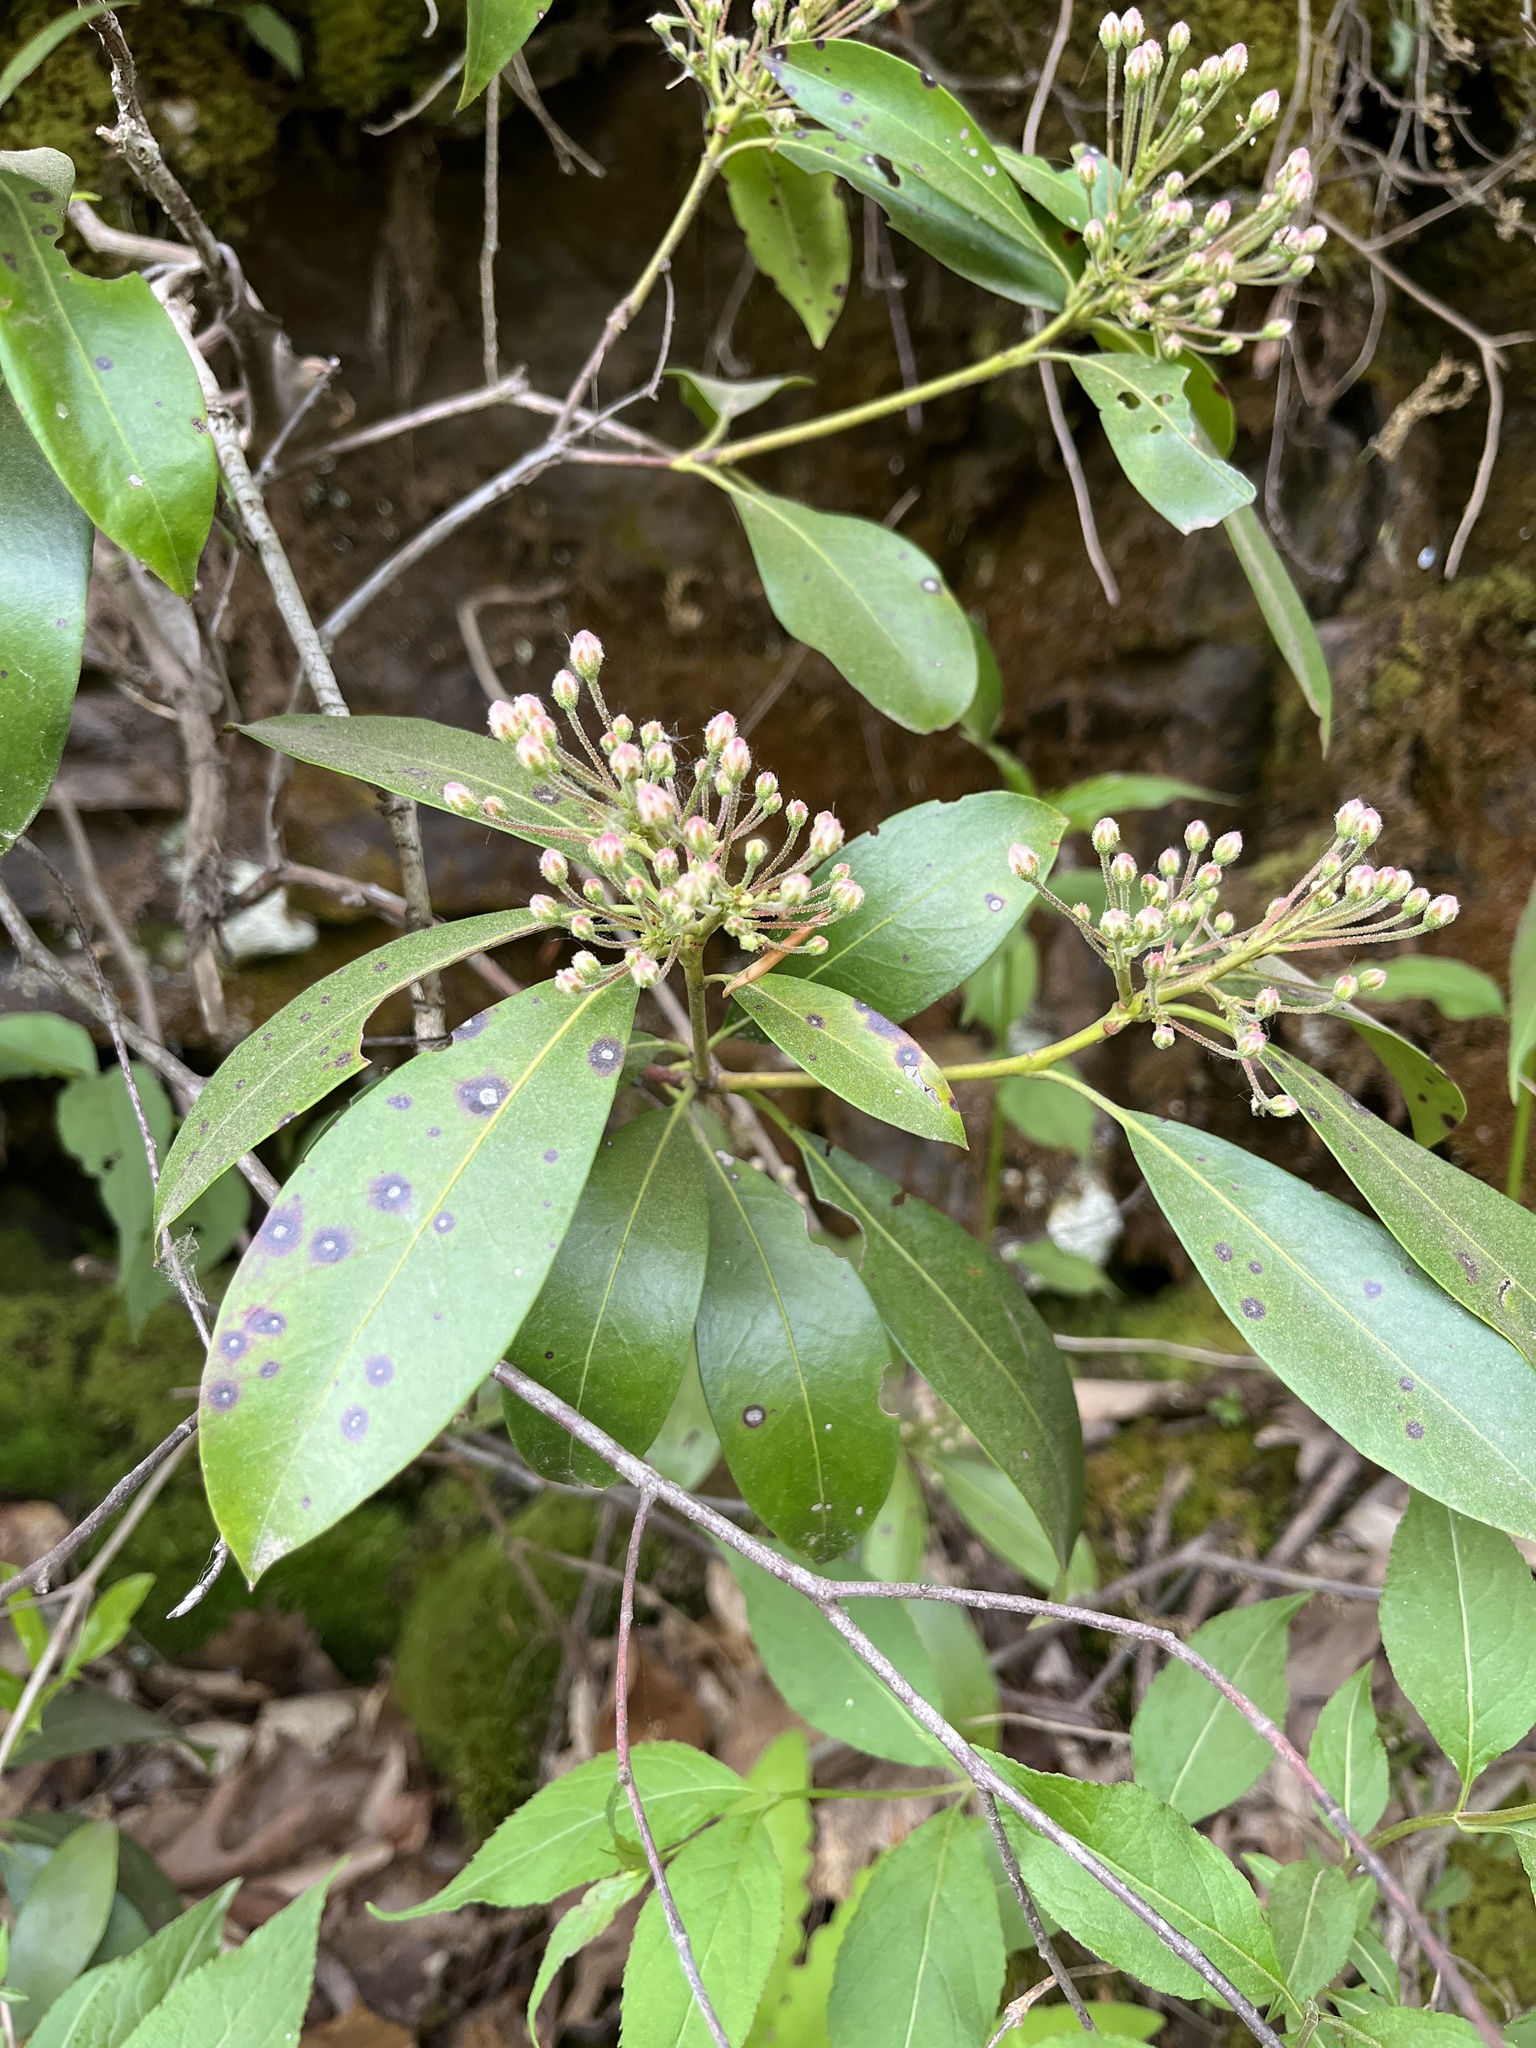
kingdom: Plantae
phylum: Tracheophyta
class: Magnoliopsida
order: Ericales
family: Ericaceae
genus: Kalmia
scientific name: Kalmia latifolia
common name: Mountain-laurel
